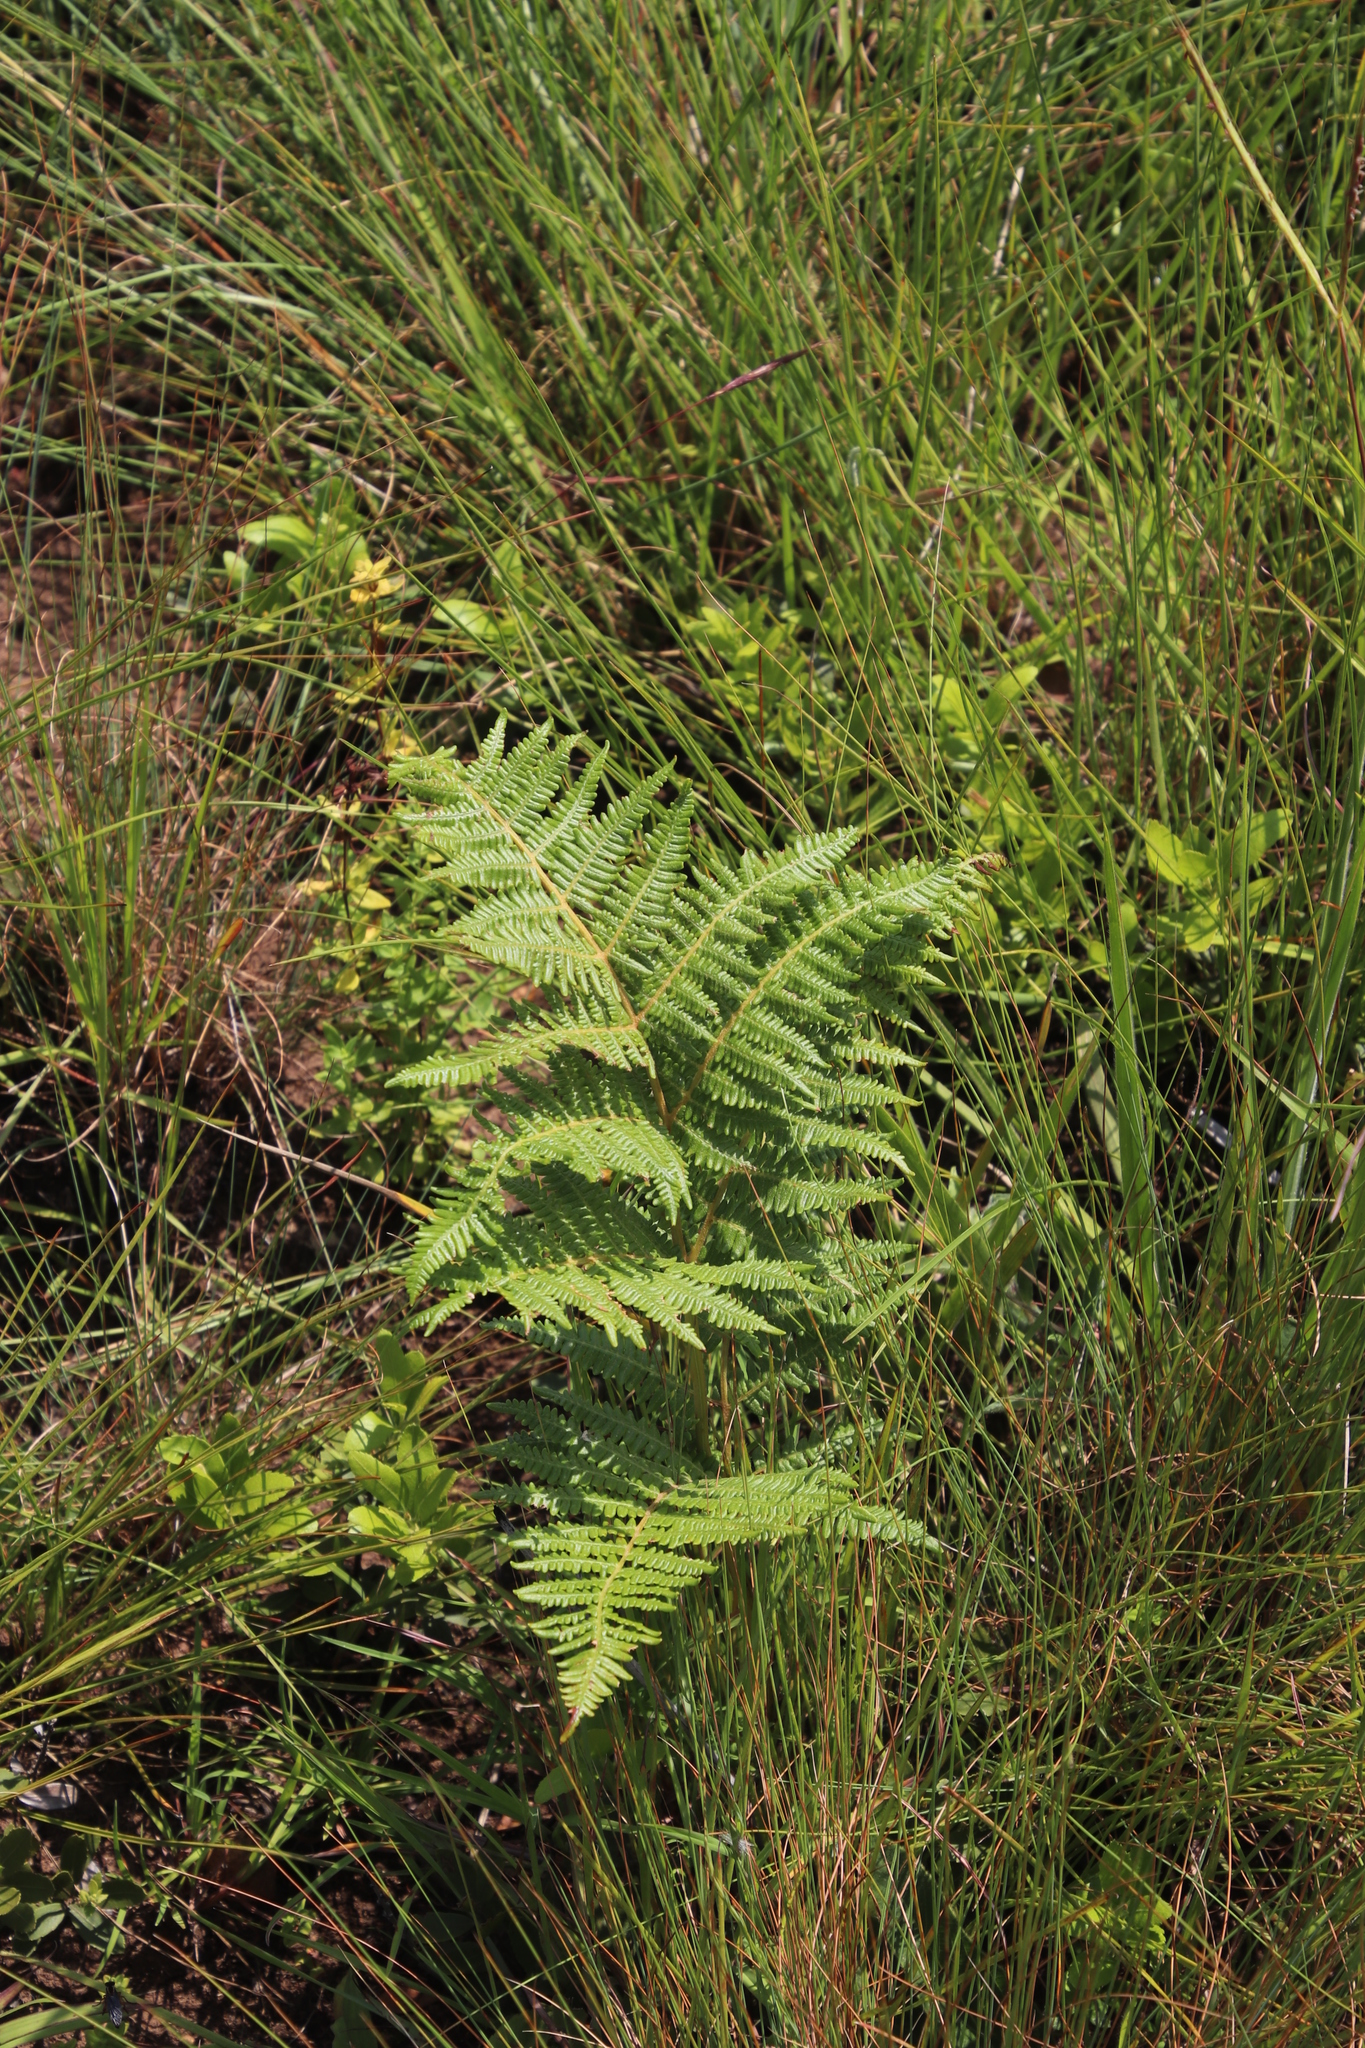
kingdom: Plantae
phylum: Tracheophyta
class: Polypodiopsida
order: Polypodiales
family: Dennstaedtiaceae
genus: Pteridium
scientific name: Pteridium aquilinum
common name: Bracken
